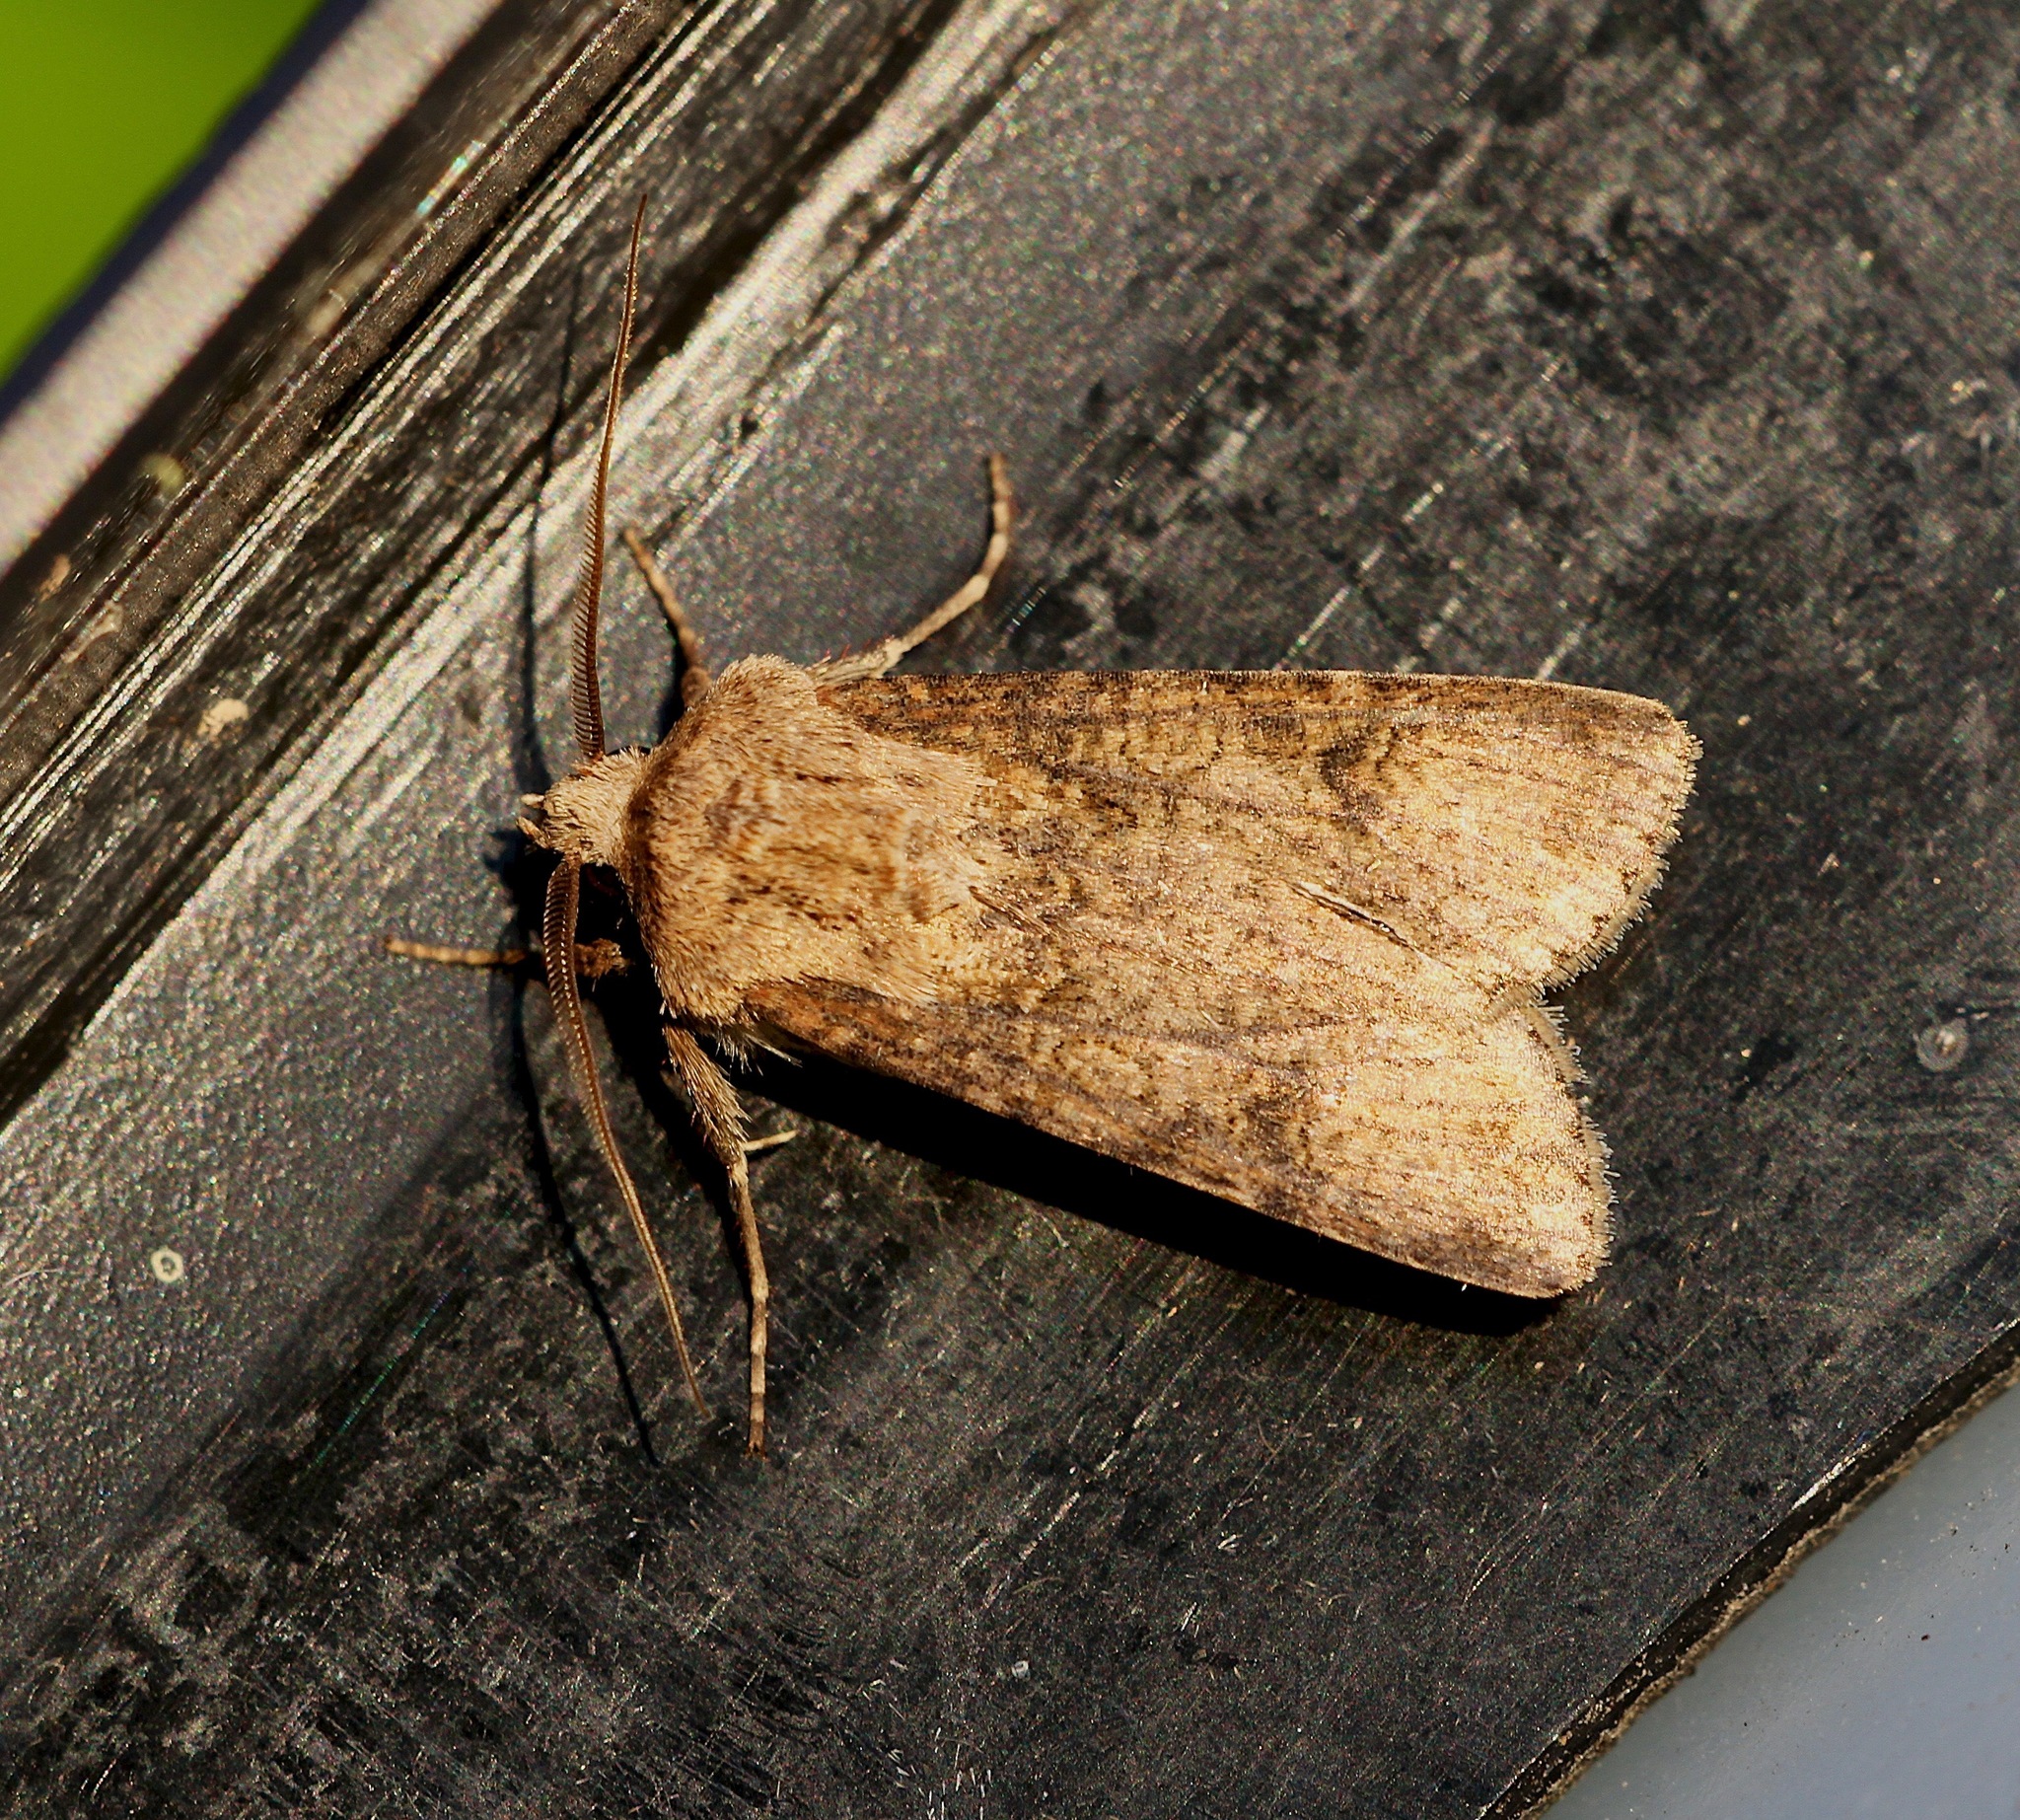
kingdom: Animalia
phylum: Arthropoda
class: Insecta
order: Lepidoptera
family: Noctuidae
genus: Agrotis
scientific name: Agrotis segetum
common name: Turnip moth
